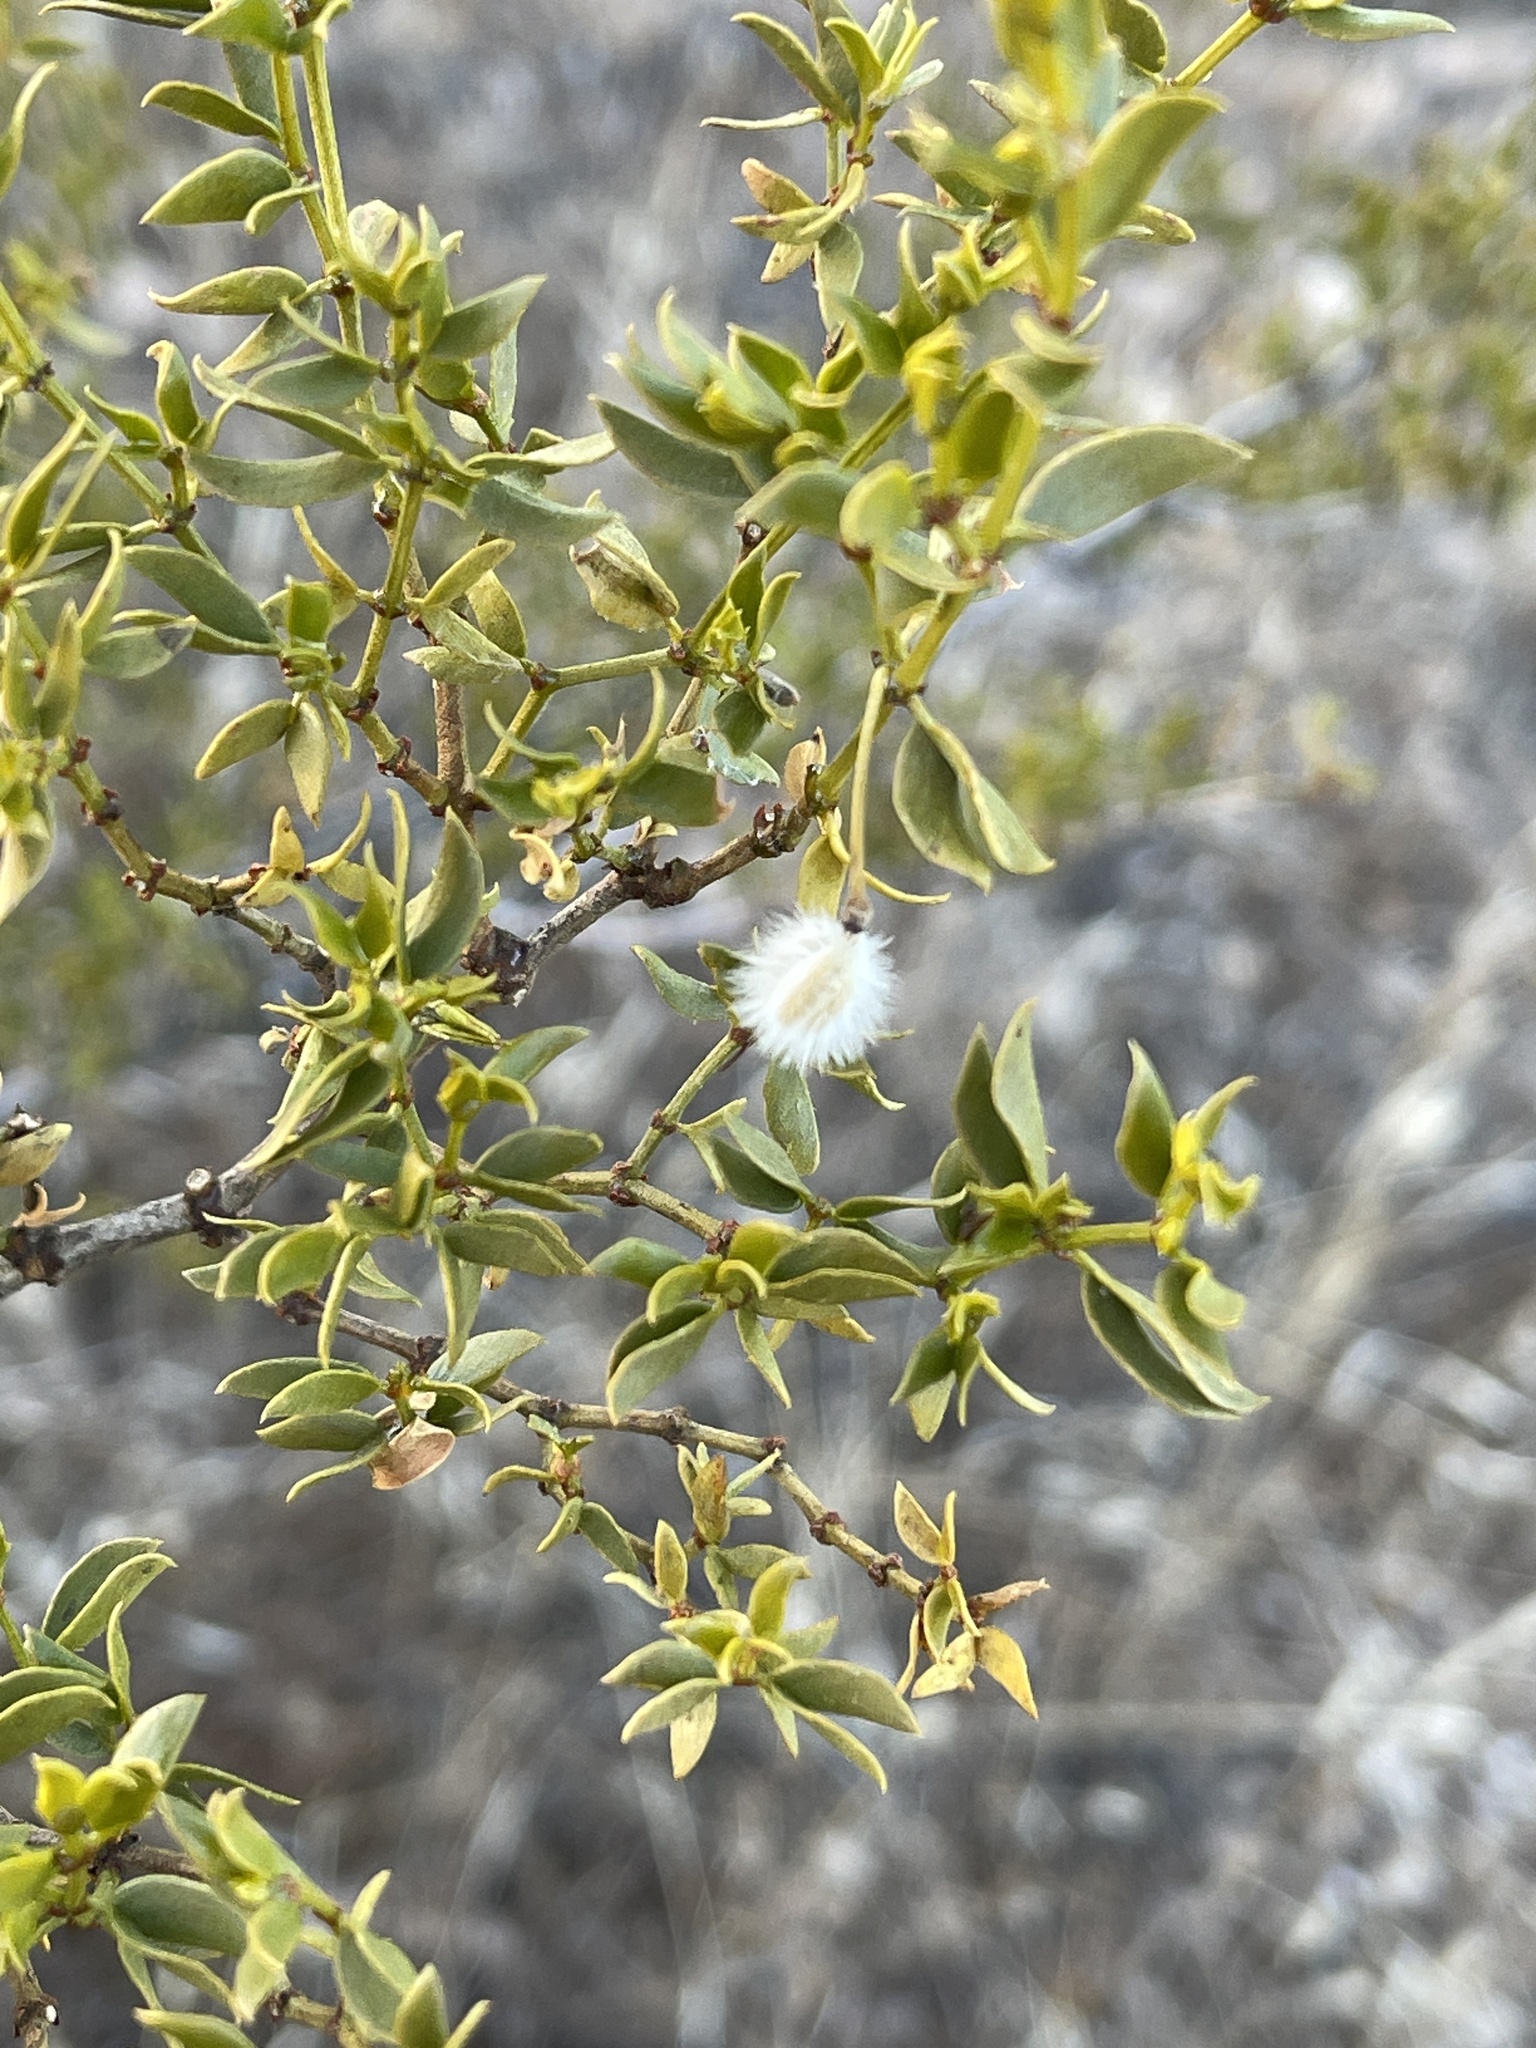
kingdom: Plantae
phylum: Tracheophyta
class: Magnoliopsida
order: Zygophyllales
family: Zygophyllaceae
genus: Larrea
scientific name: Larrea tridentata
